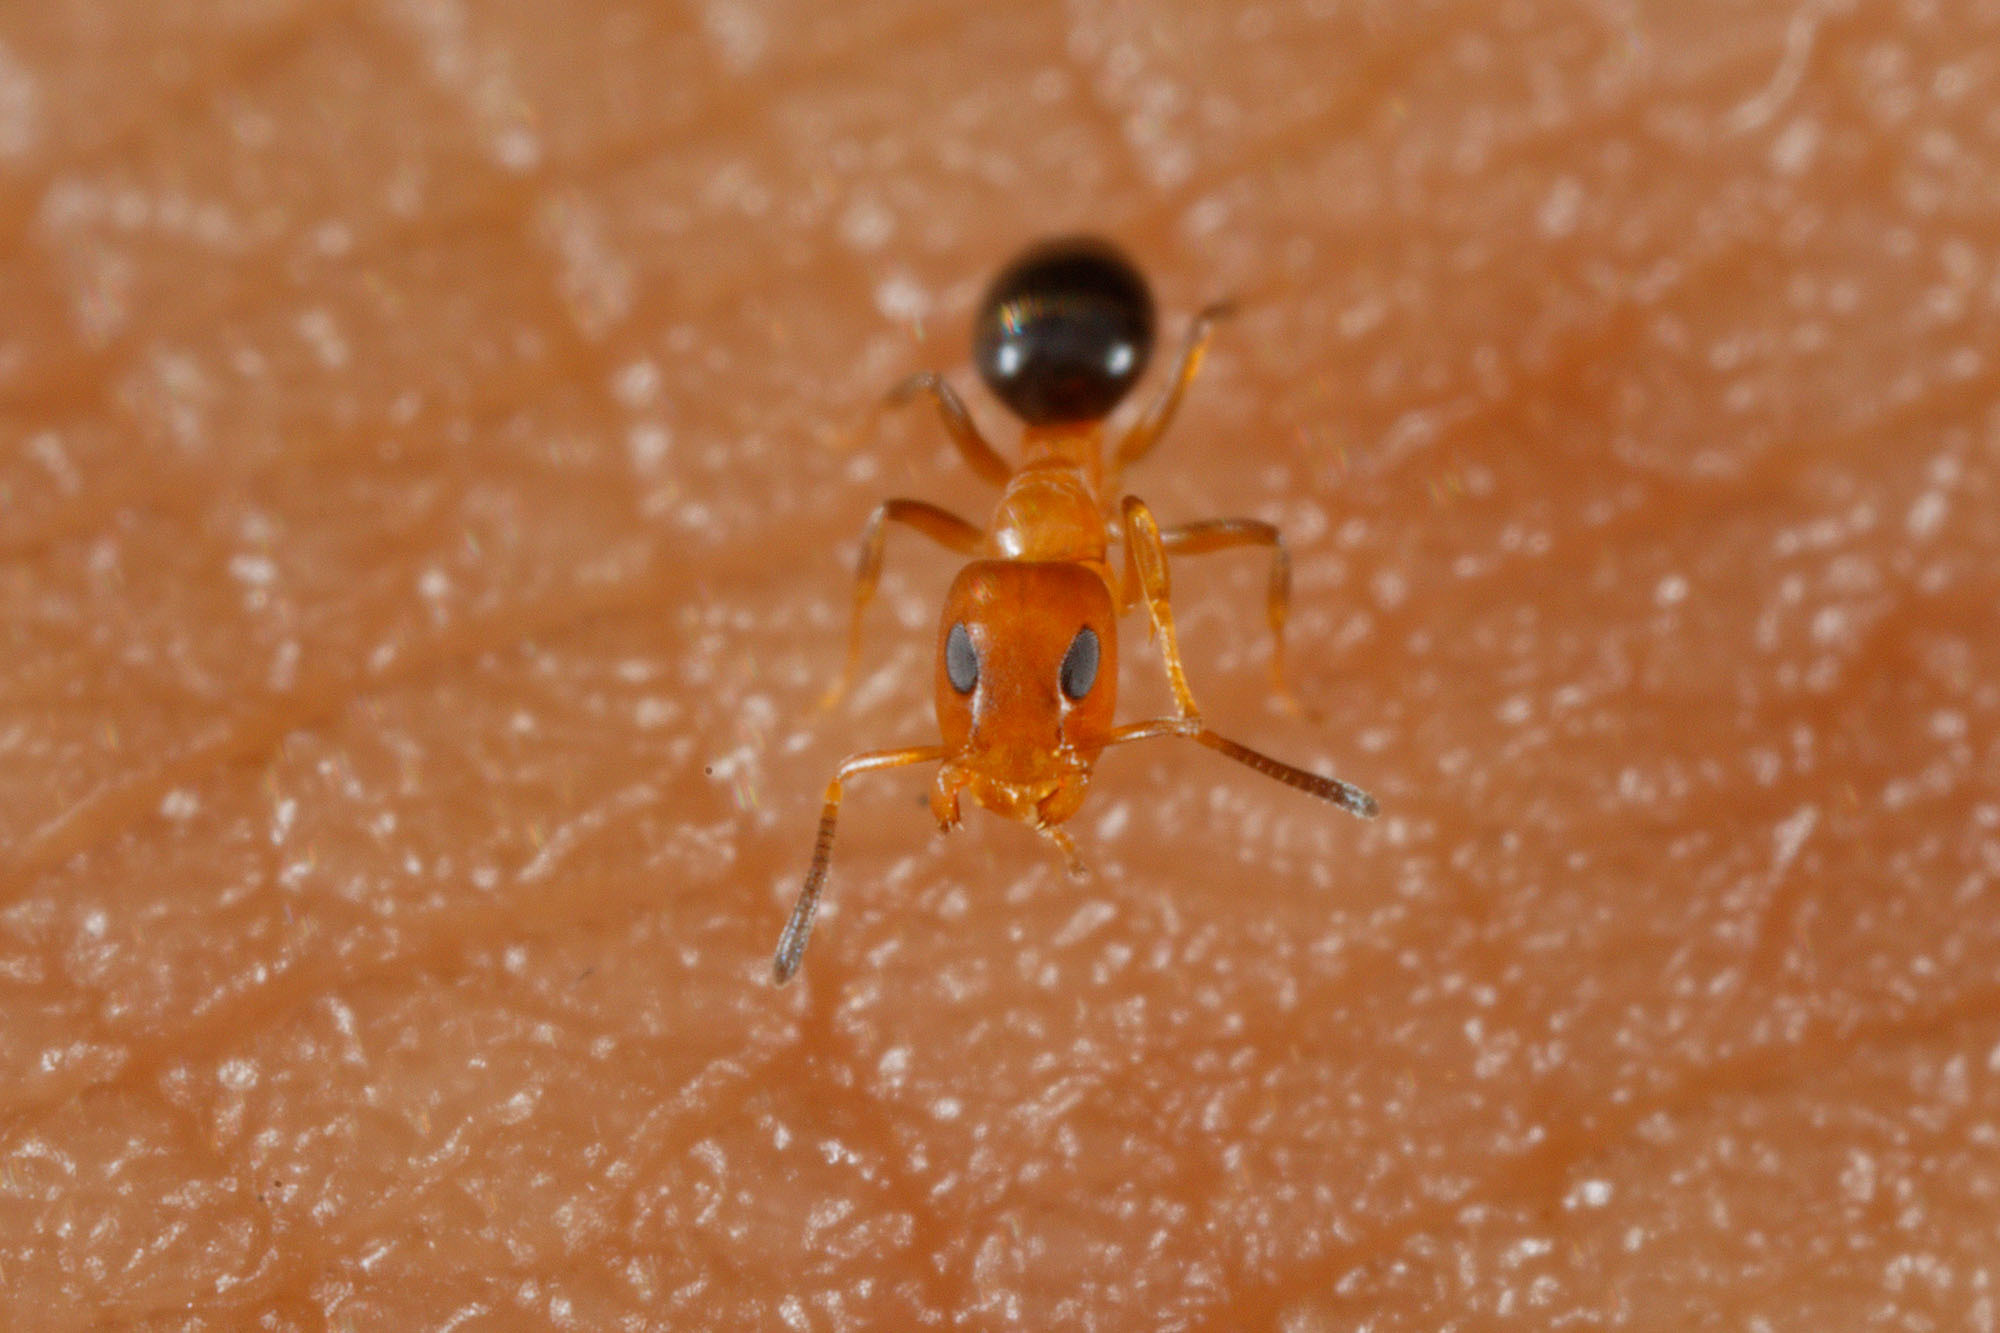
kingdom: Animalia
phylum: Arthropoda
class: Insecta
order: Hymenoptera
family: Formicidae
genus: Turneria
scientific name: Turneria bidentata
